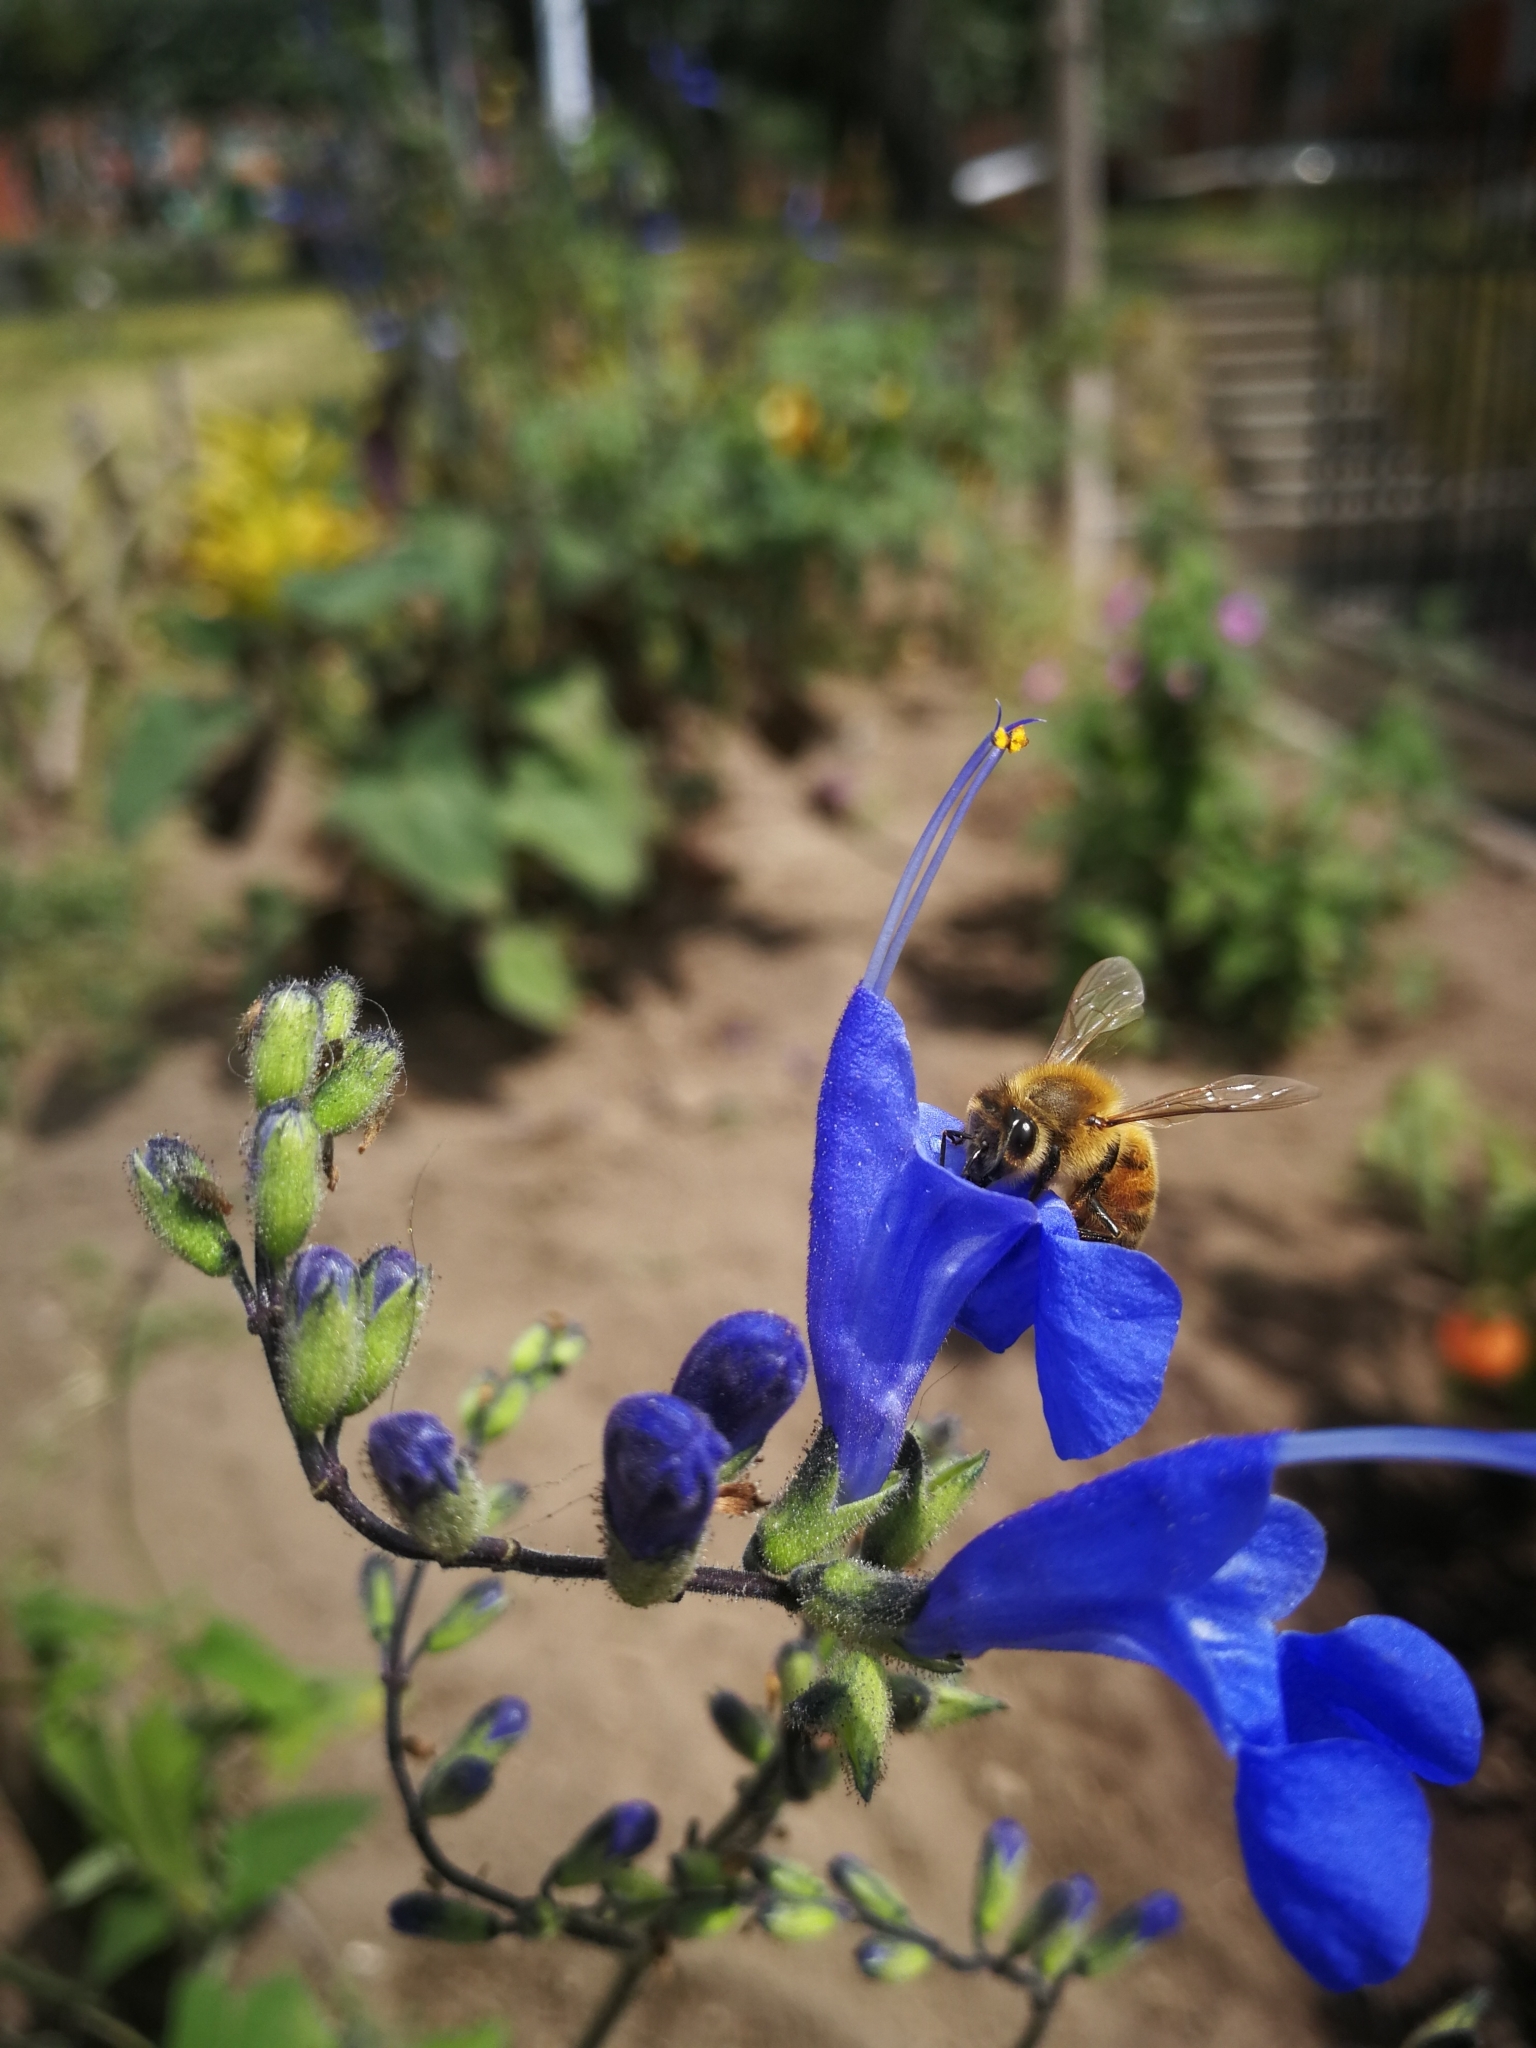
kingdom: Animalia
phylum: Arthropoda
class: Insecta
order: Hymenoptera
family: Apidae
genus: Apis
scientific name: Apis mellifera
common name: Honey bee
